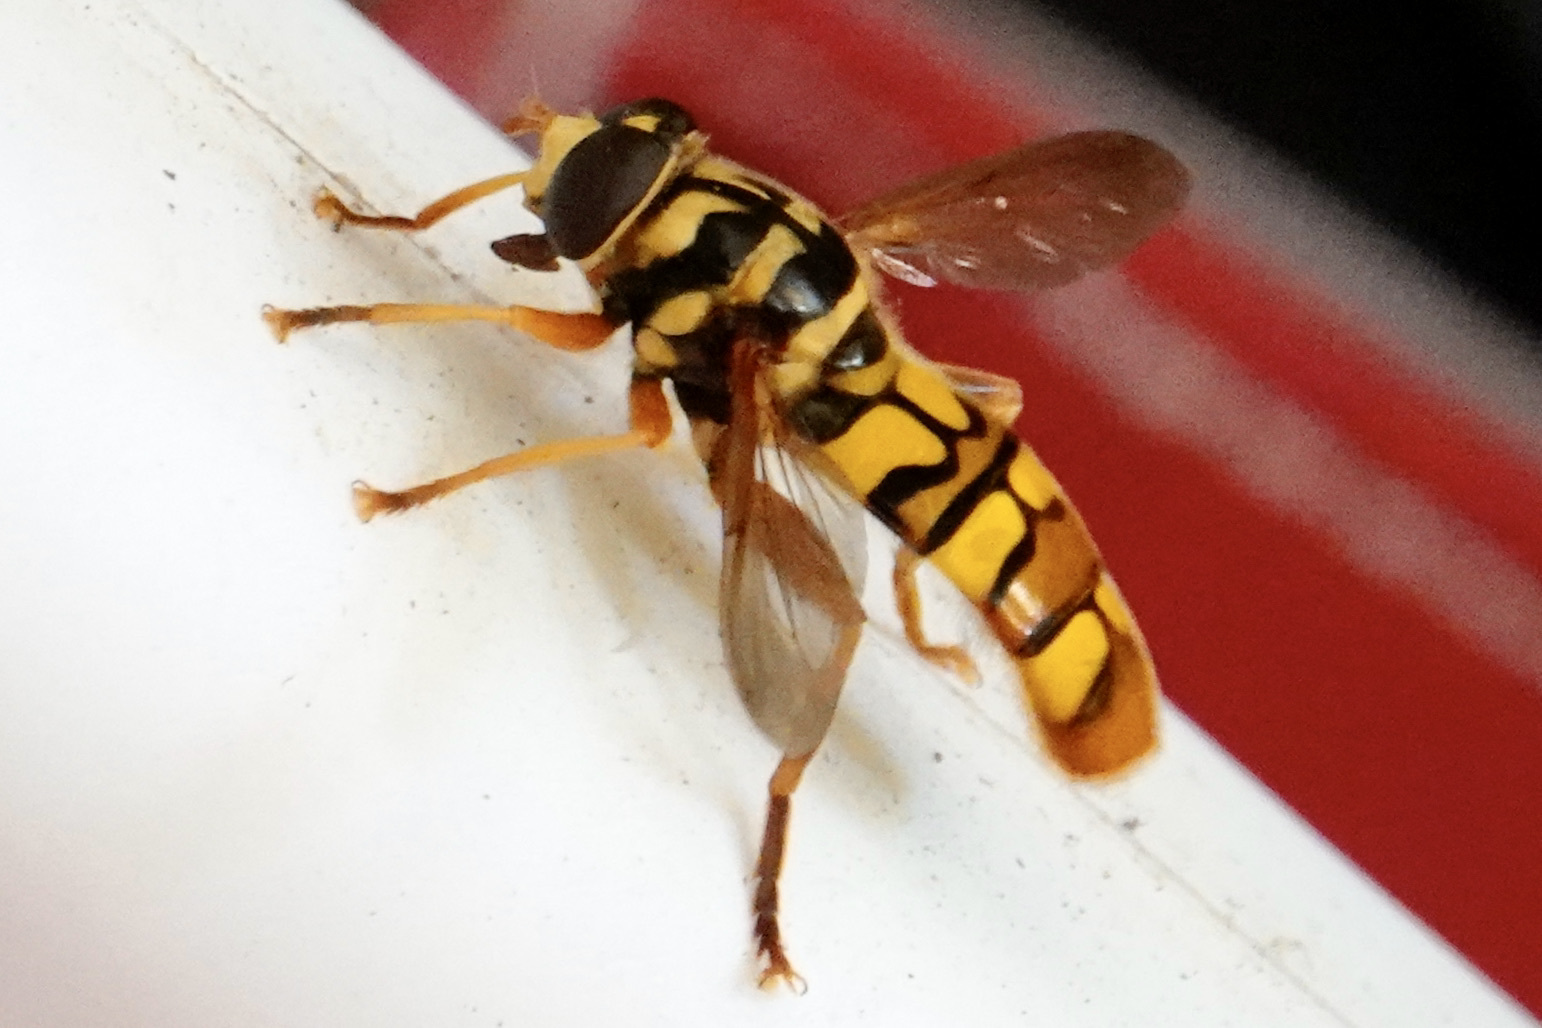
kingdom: Animalia
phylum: Arthropoda
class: Insecta
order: Diptera
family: Syrphidae
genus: Milesia
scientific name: Milesia virginiensis
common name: Virginia giant
